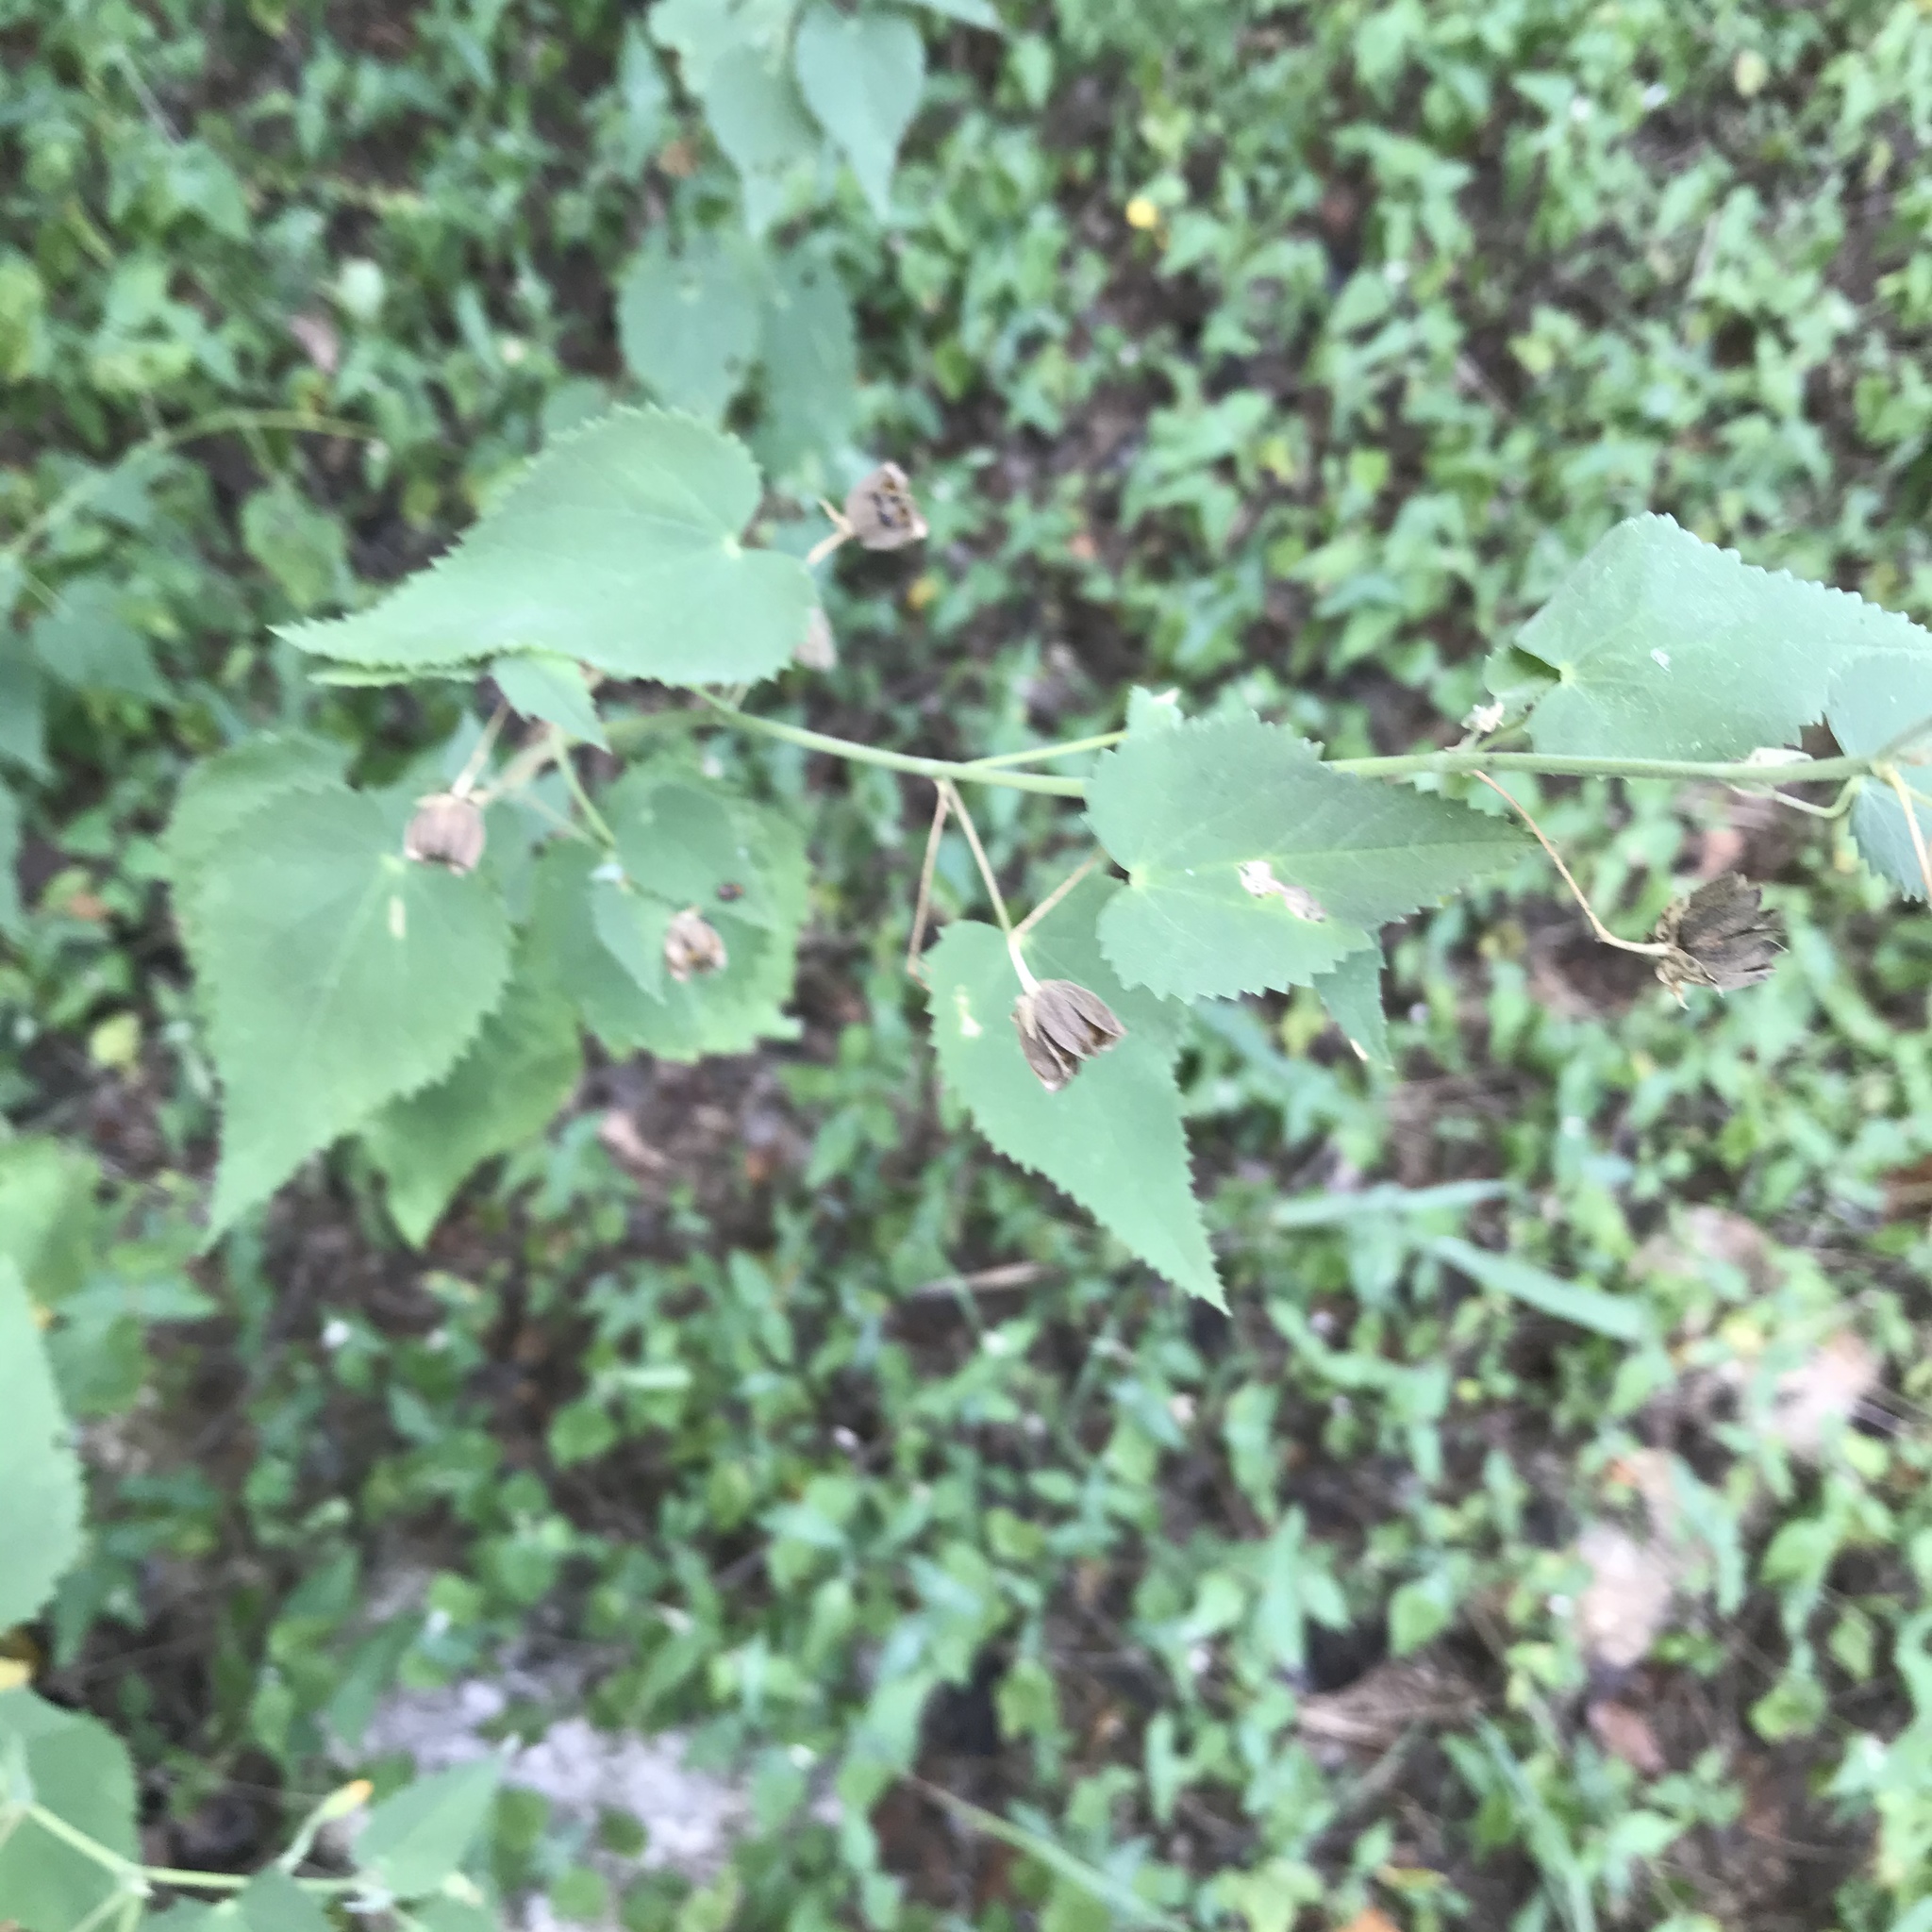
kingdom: Plantae
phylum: Tracheophyta
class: Magnoliopsida
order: Malvales
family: Malvaceae
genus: Abutilon
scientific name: Abutilon fruticosum
